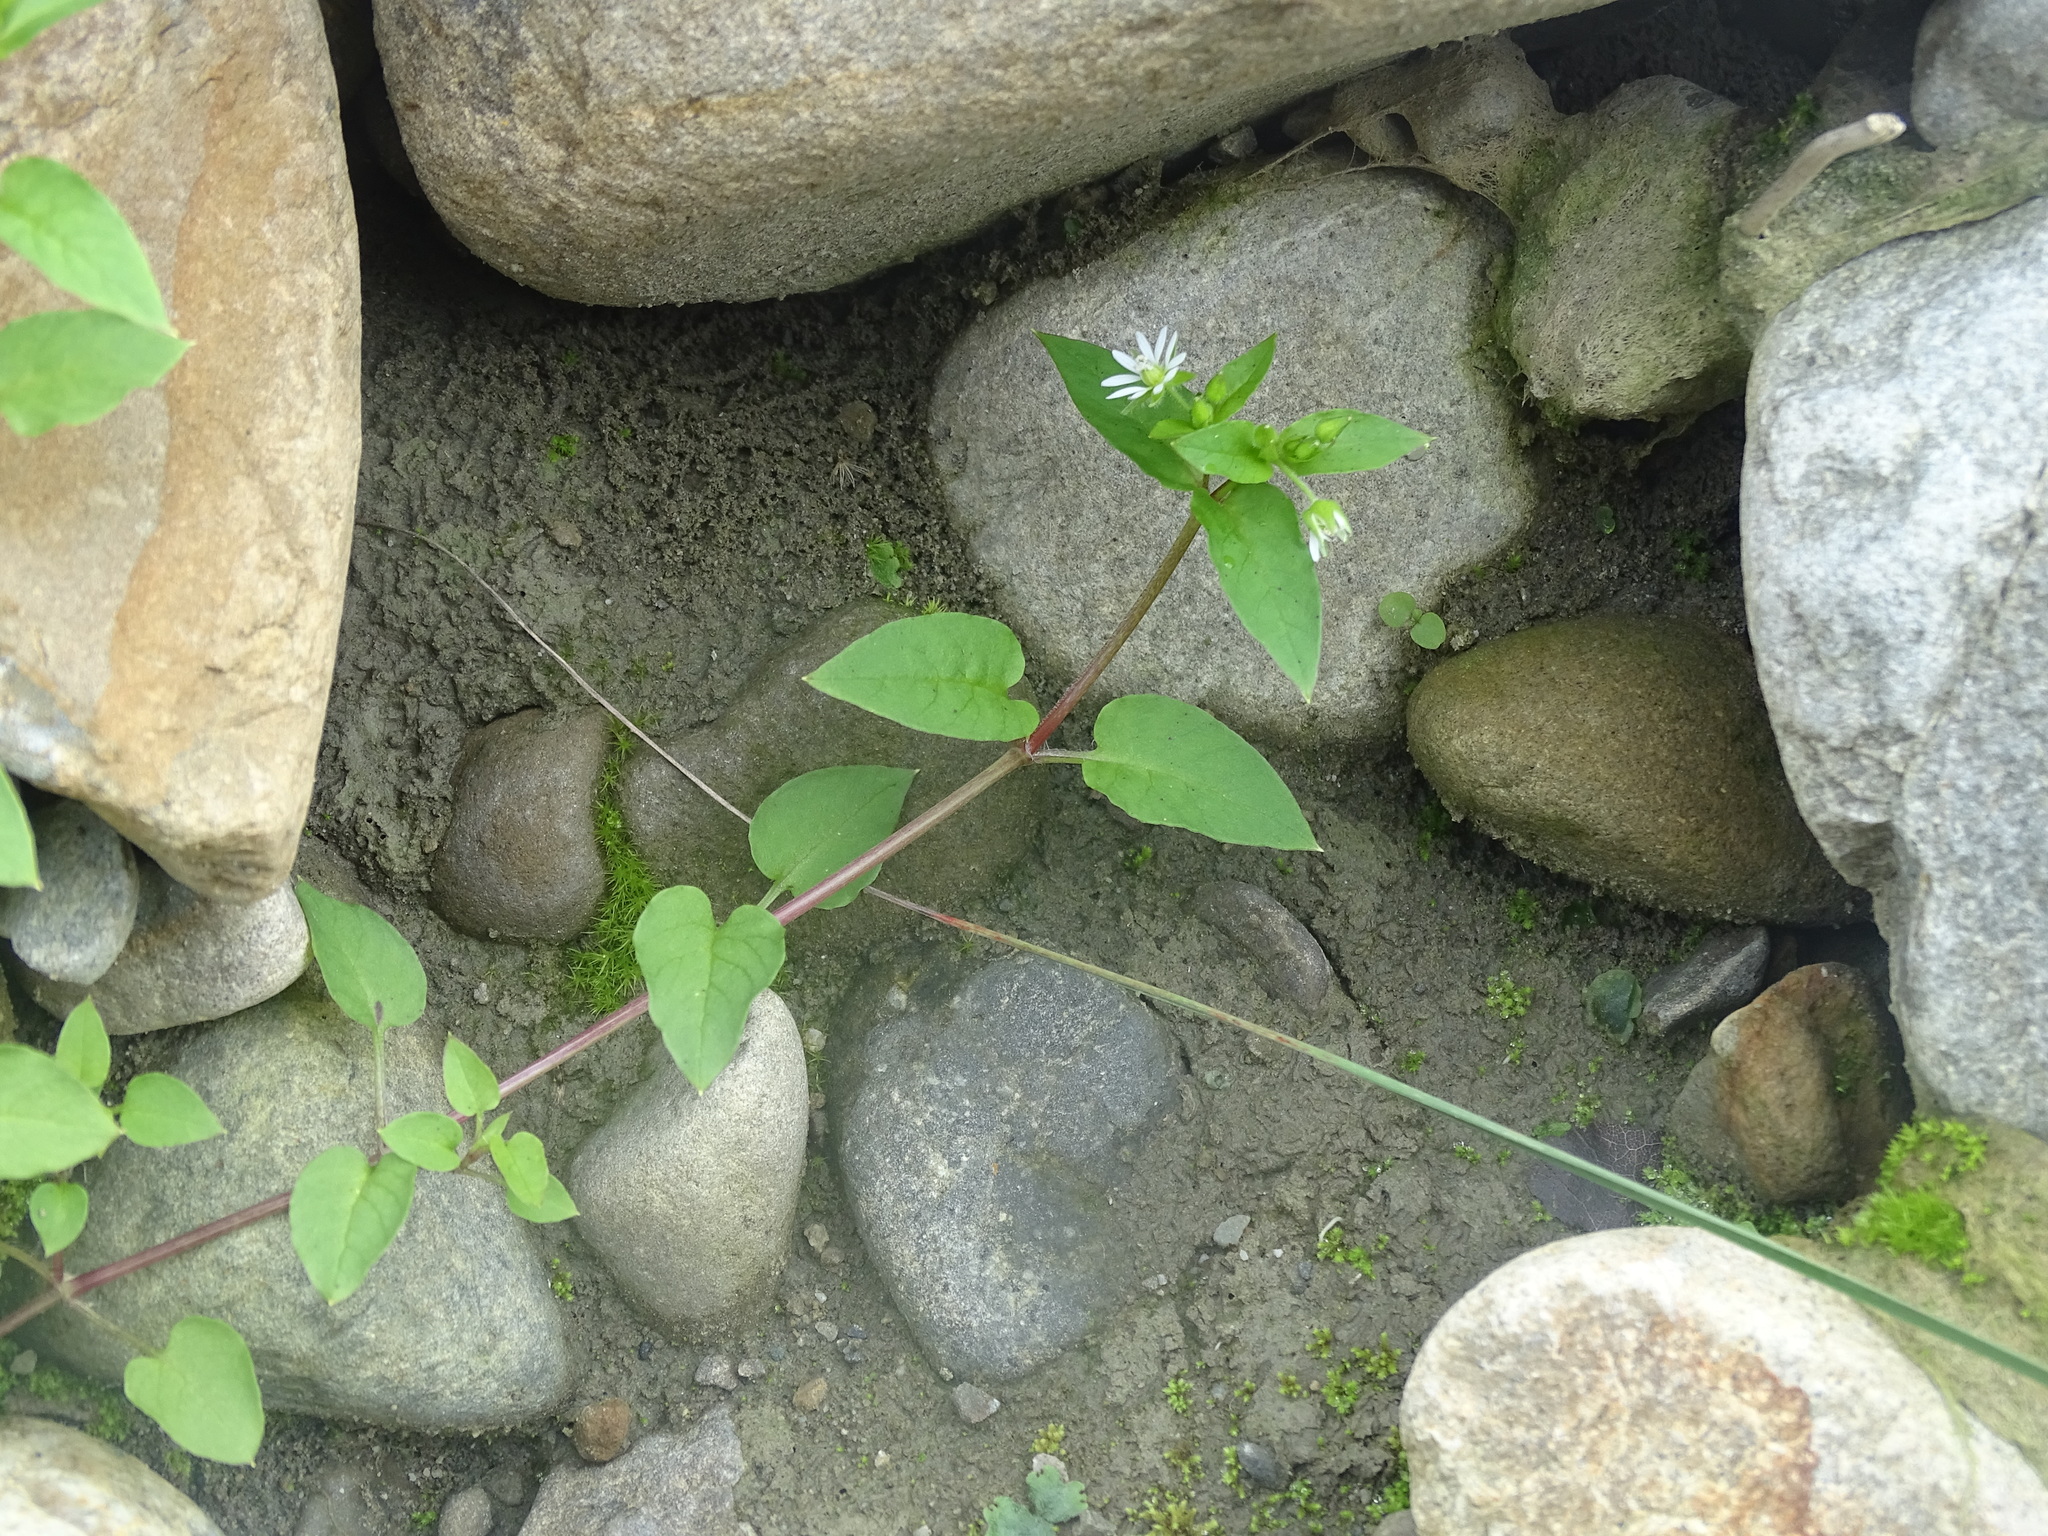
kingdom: Plantae
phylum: Tracheophyta
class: Magnoliopsida
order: Caryophyllales
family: Caryophyllaceae
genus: Stellaria
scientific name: Stellaria aquatica
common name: Water chickweed
